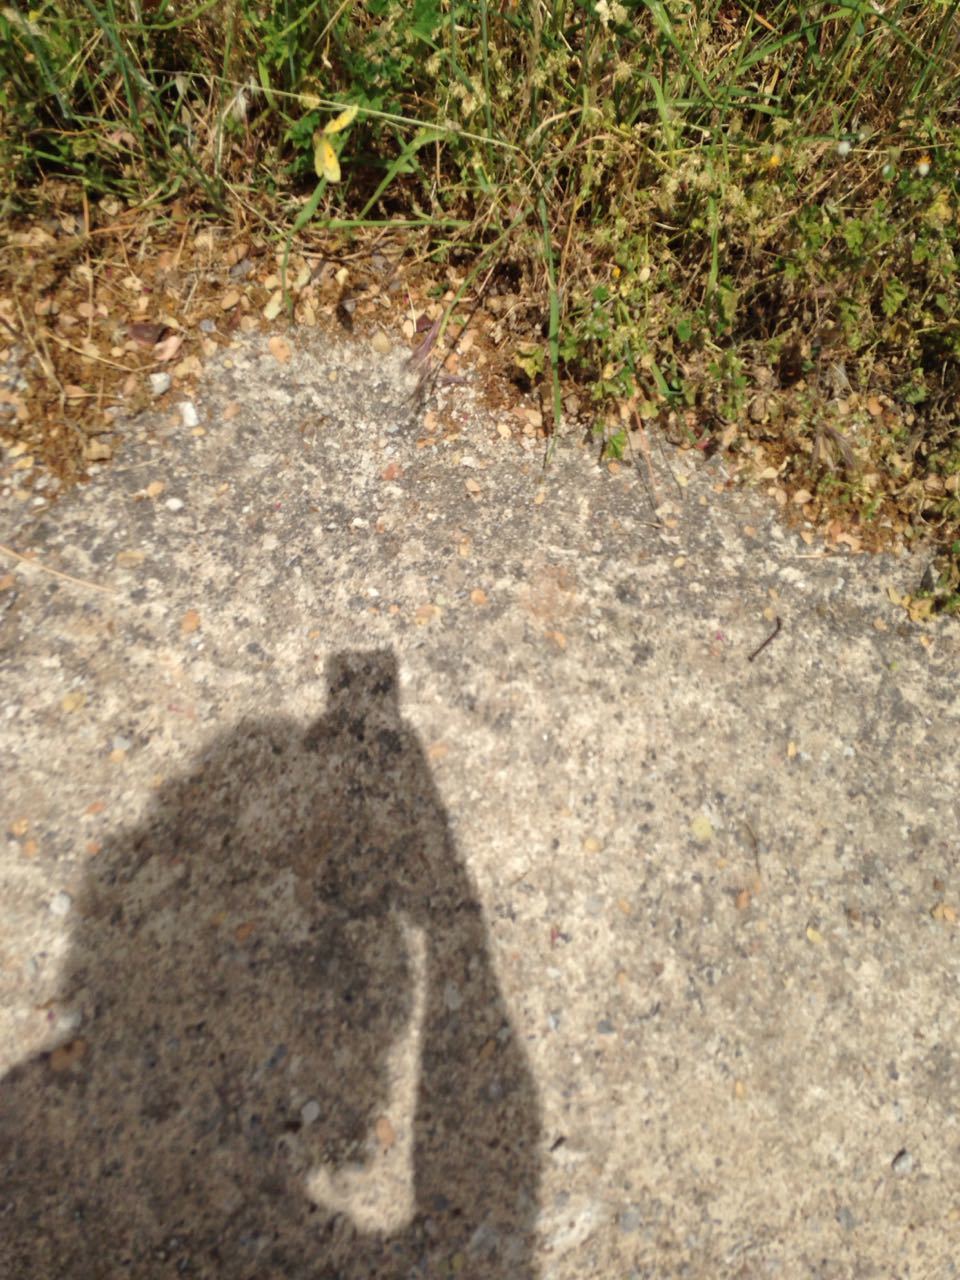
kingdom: Animalia
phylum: Arthropoda
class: Insecta
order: Lepidoptera
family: Pieridae
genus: Colias
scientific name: Colias croceus
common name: Clouded yellow
